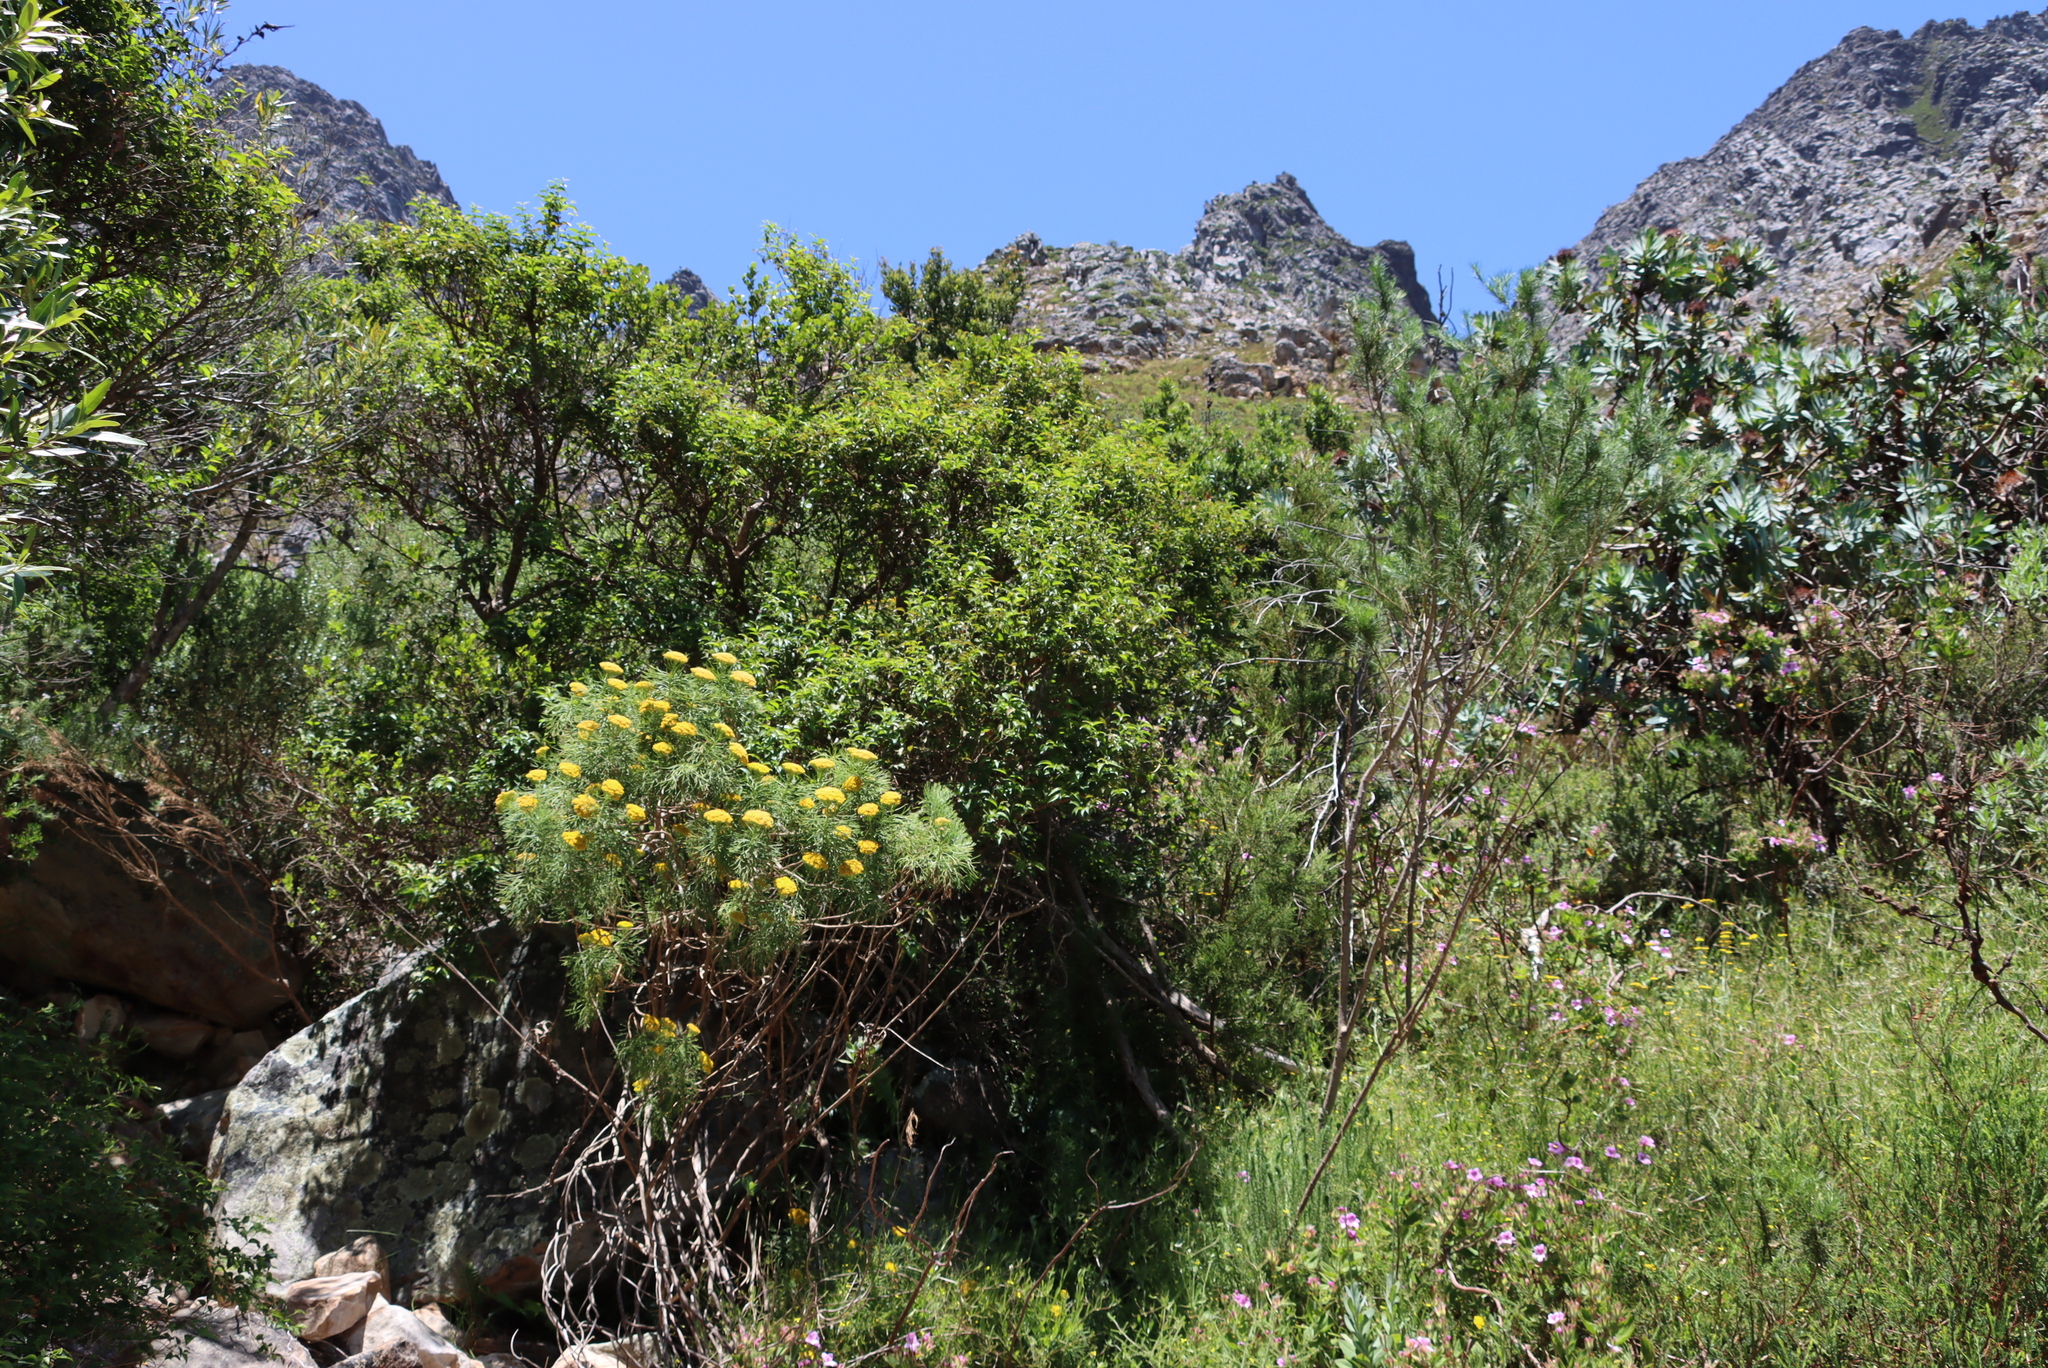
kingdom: Plantae
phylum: Tracheophyta
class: Magnoliopsida
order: Lamiales
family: Stilbaceae
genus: Halleria
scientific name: Halleria lucida
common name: Tree fuschia
